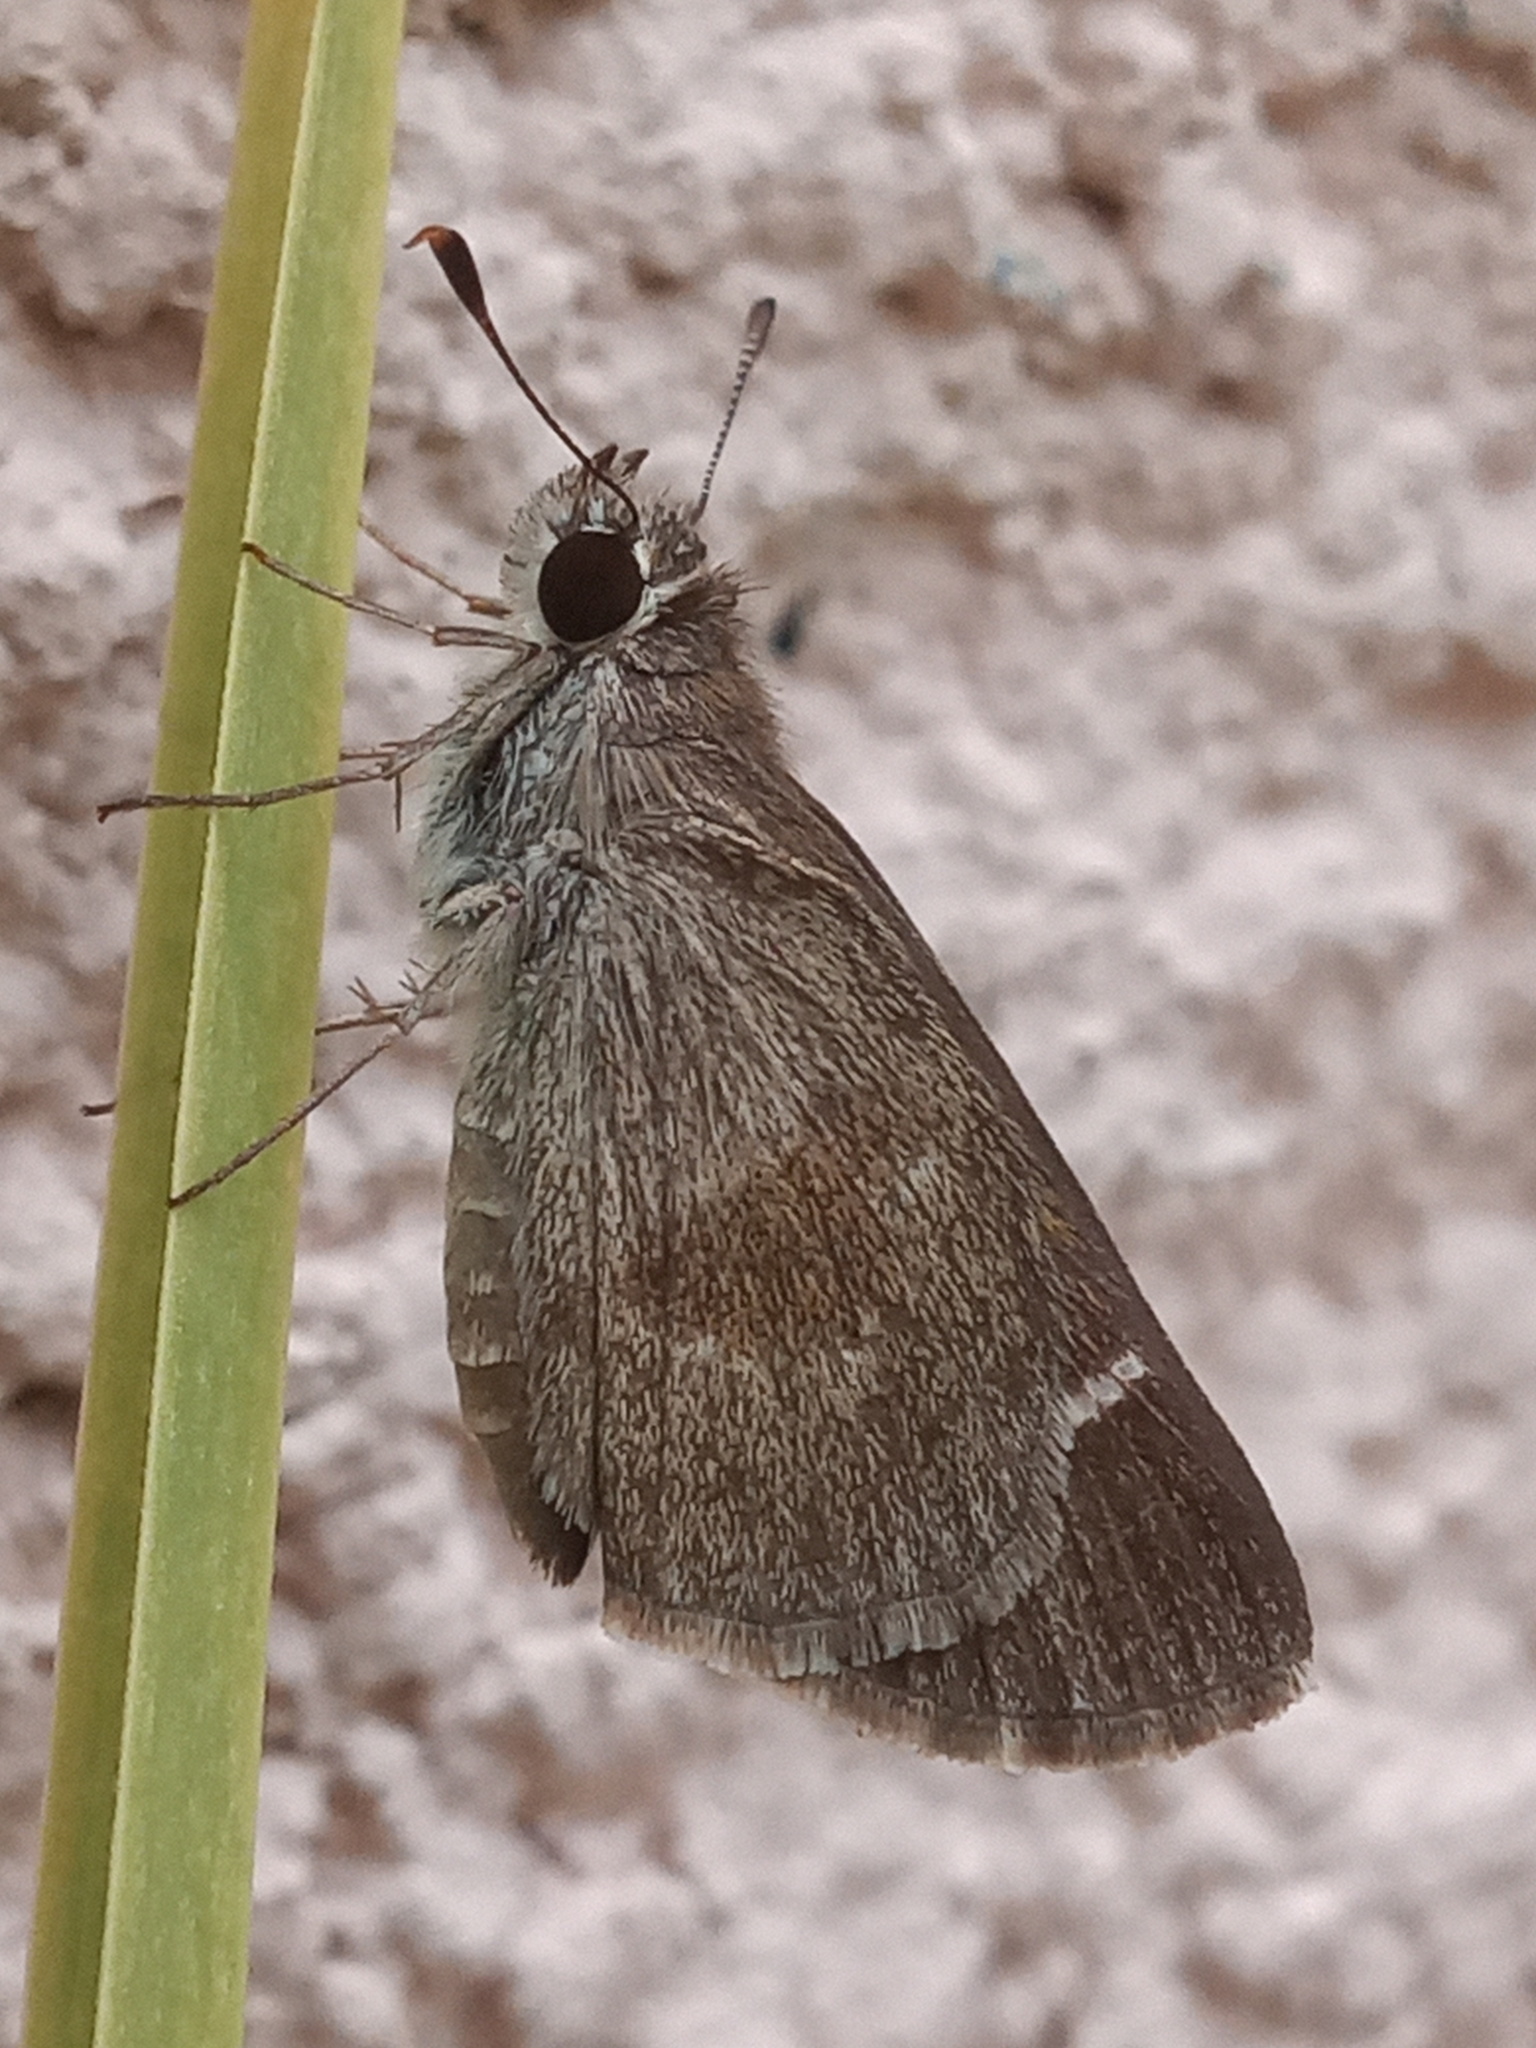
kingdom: Animalia
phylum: Arthropoda
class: Insecta
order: Lepidoptera
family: Hesperiidae
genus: Lerodea
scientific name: Lerodea arabus
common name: Violet-clouded skipper
